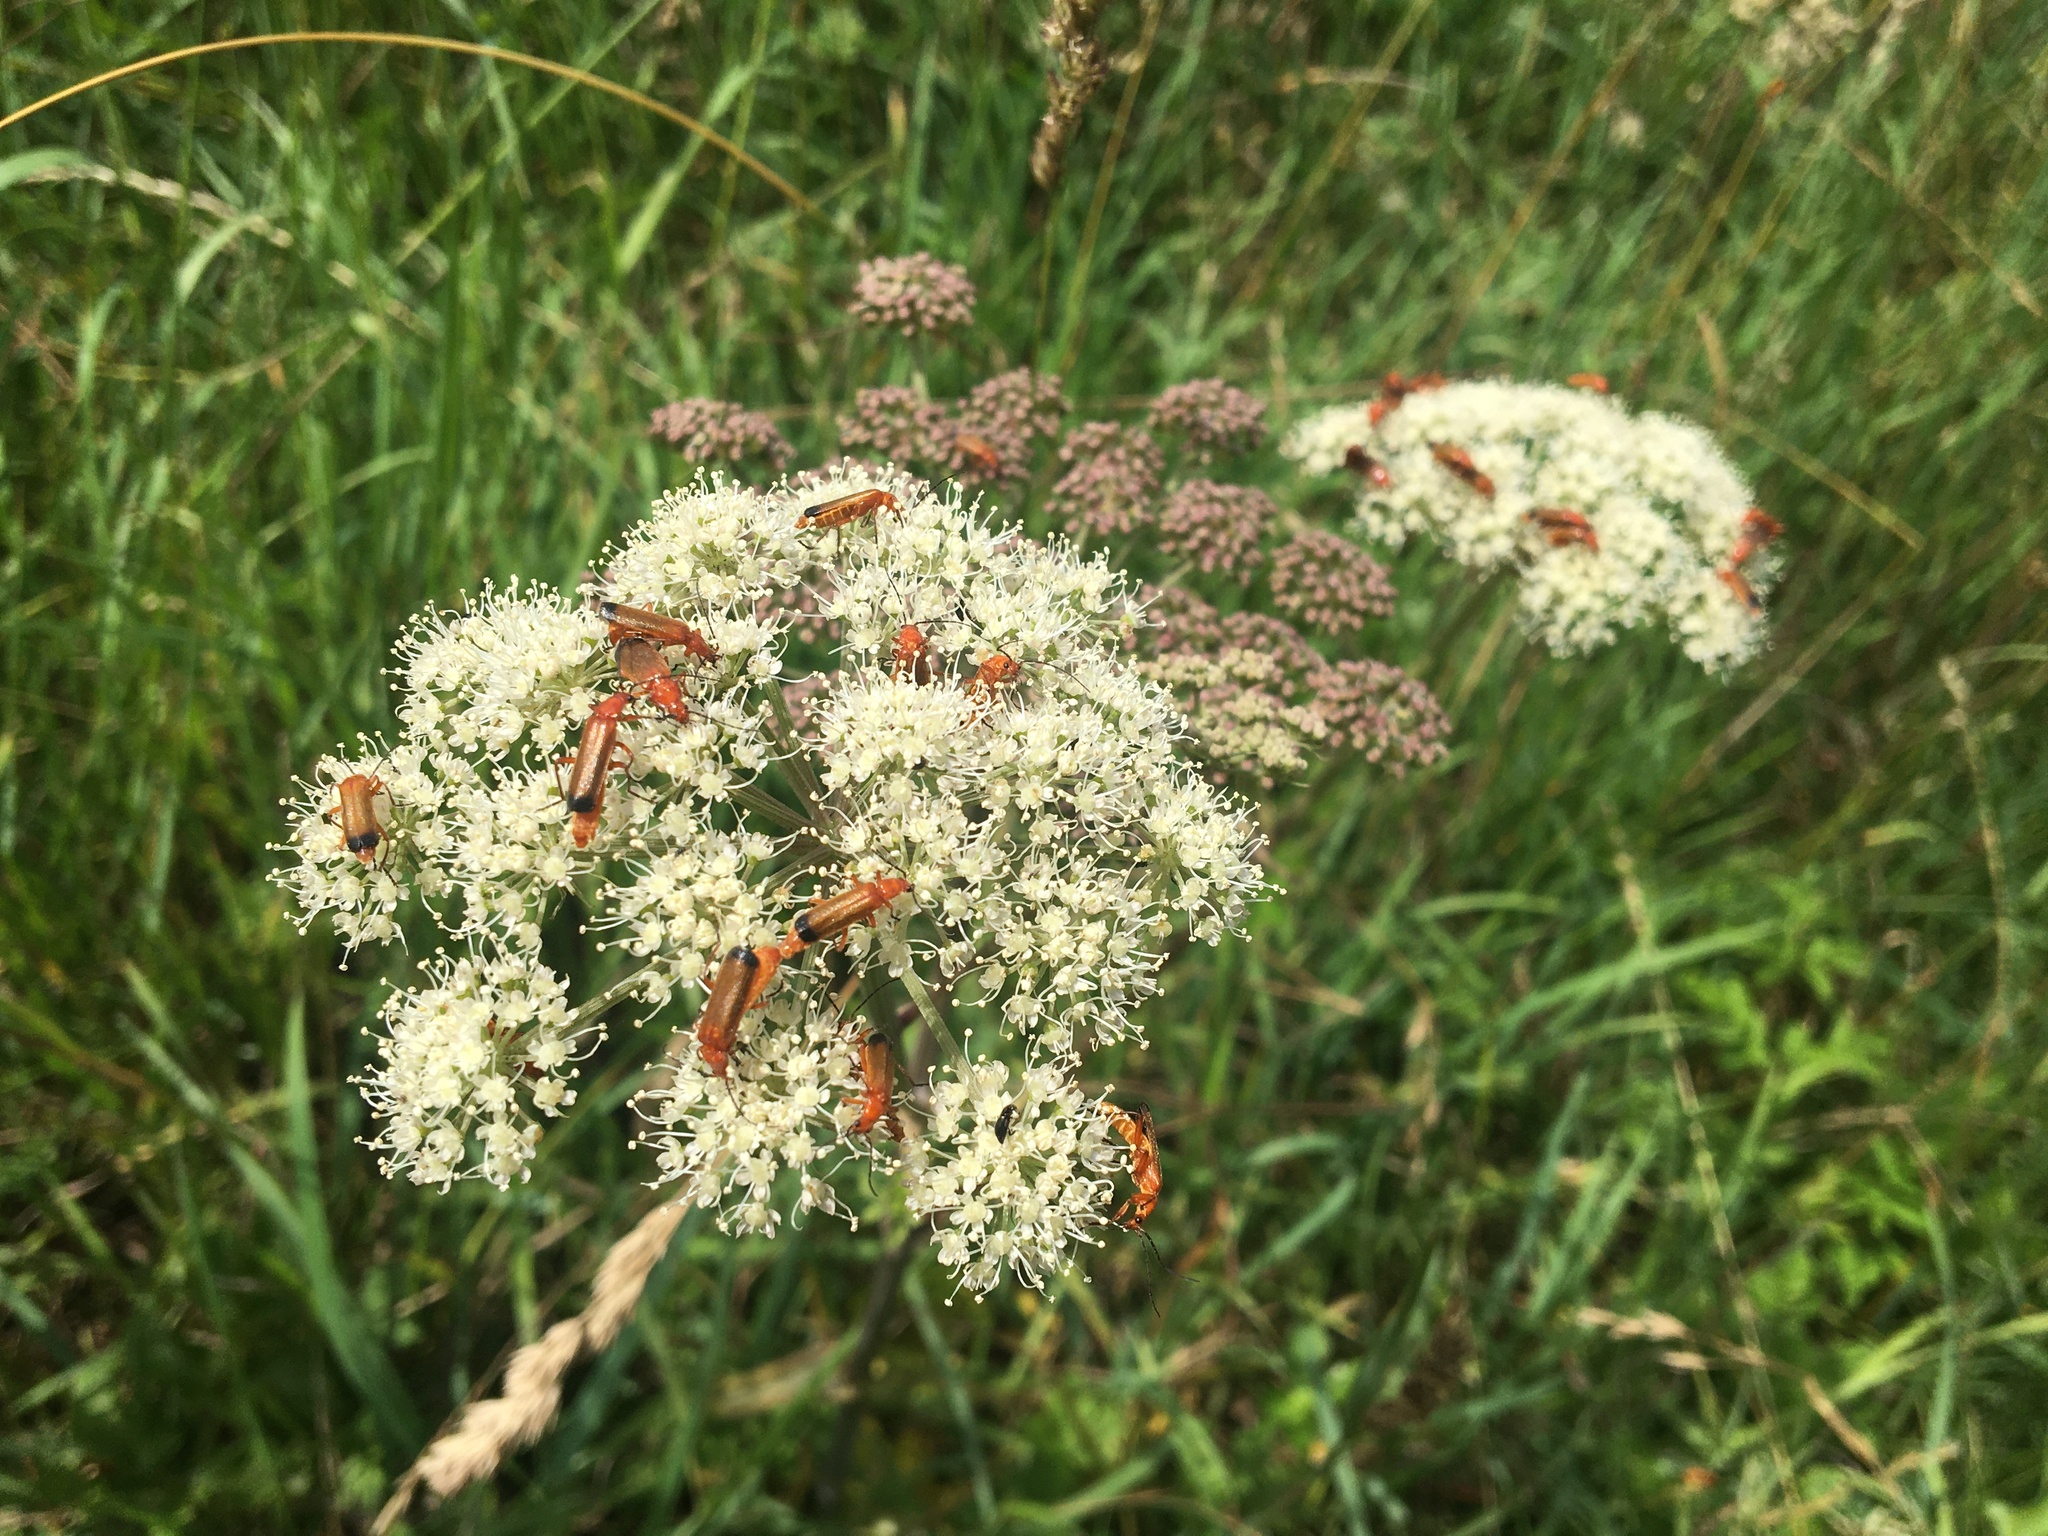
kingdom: Animalia
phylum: Arthropoda
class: Insecta
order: Coleoptera
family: Cantharidae
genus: Rhagonycha
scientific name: Rhagonycha fulva
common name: Common red soldier beetle
